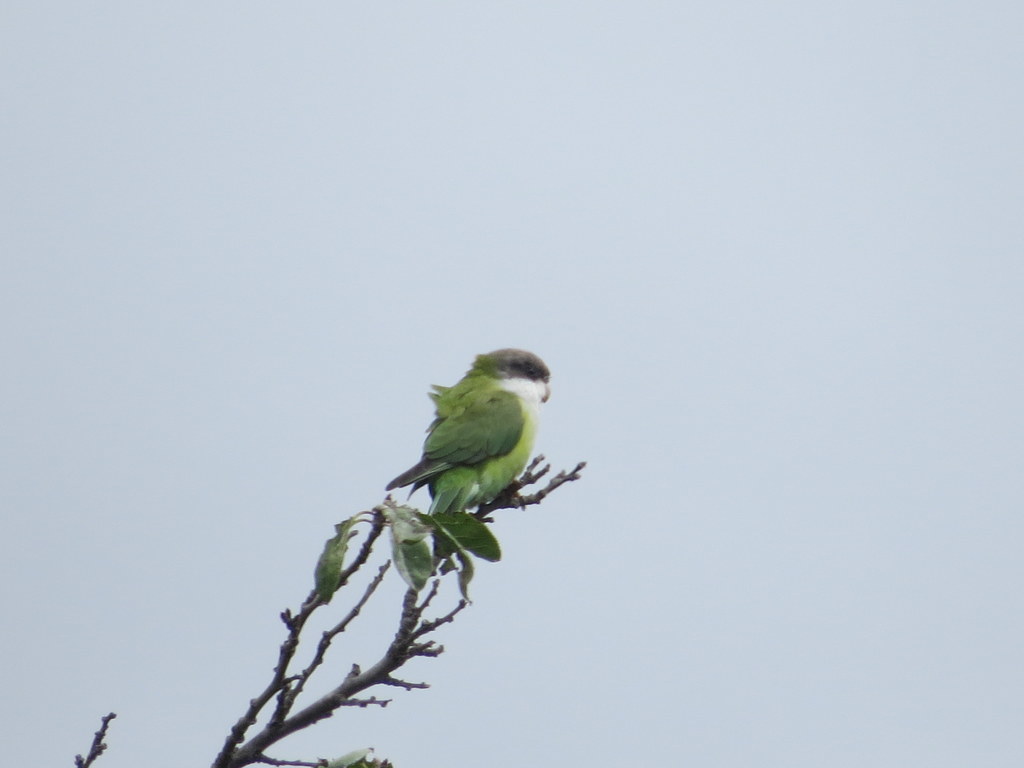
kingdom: Animalia
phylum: Chordata
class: Aves
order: Psittaciformes
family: Psittacidae
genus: Psilopsiagon
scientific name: Psilopsiagon aymara
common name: Grey-hooded parakeet
